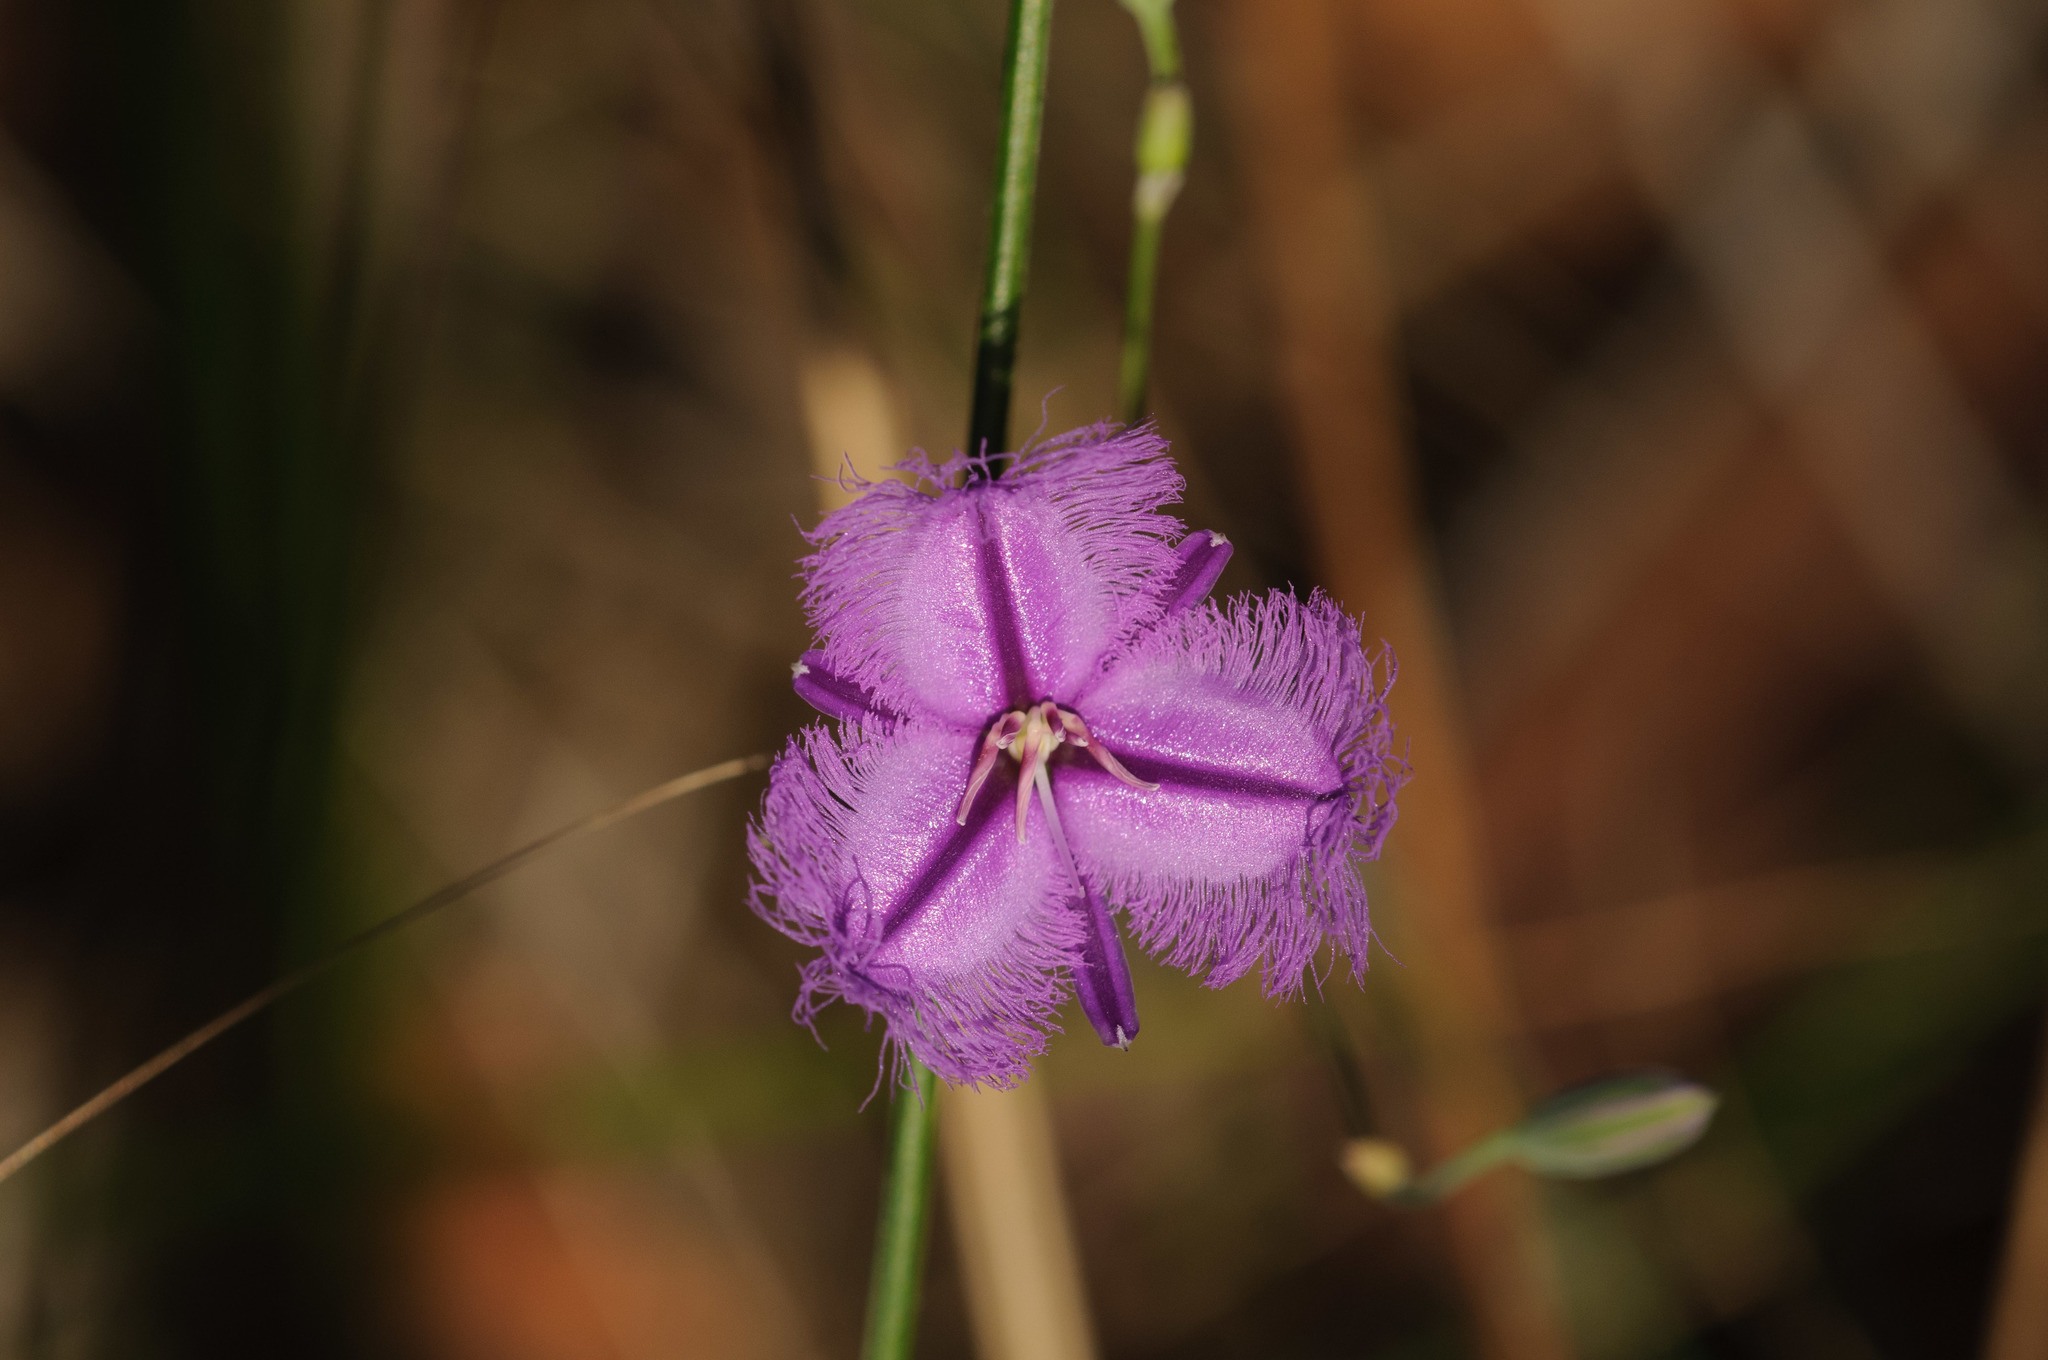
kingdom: Plantae
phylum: Tracheophyta
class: Liliopsida
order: Asparagales
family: Asparagaceae
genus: Thysanotus
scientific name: Thysanotus tuberosus
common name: Common fringed-lily
